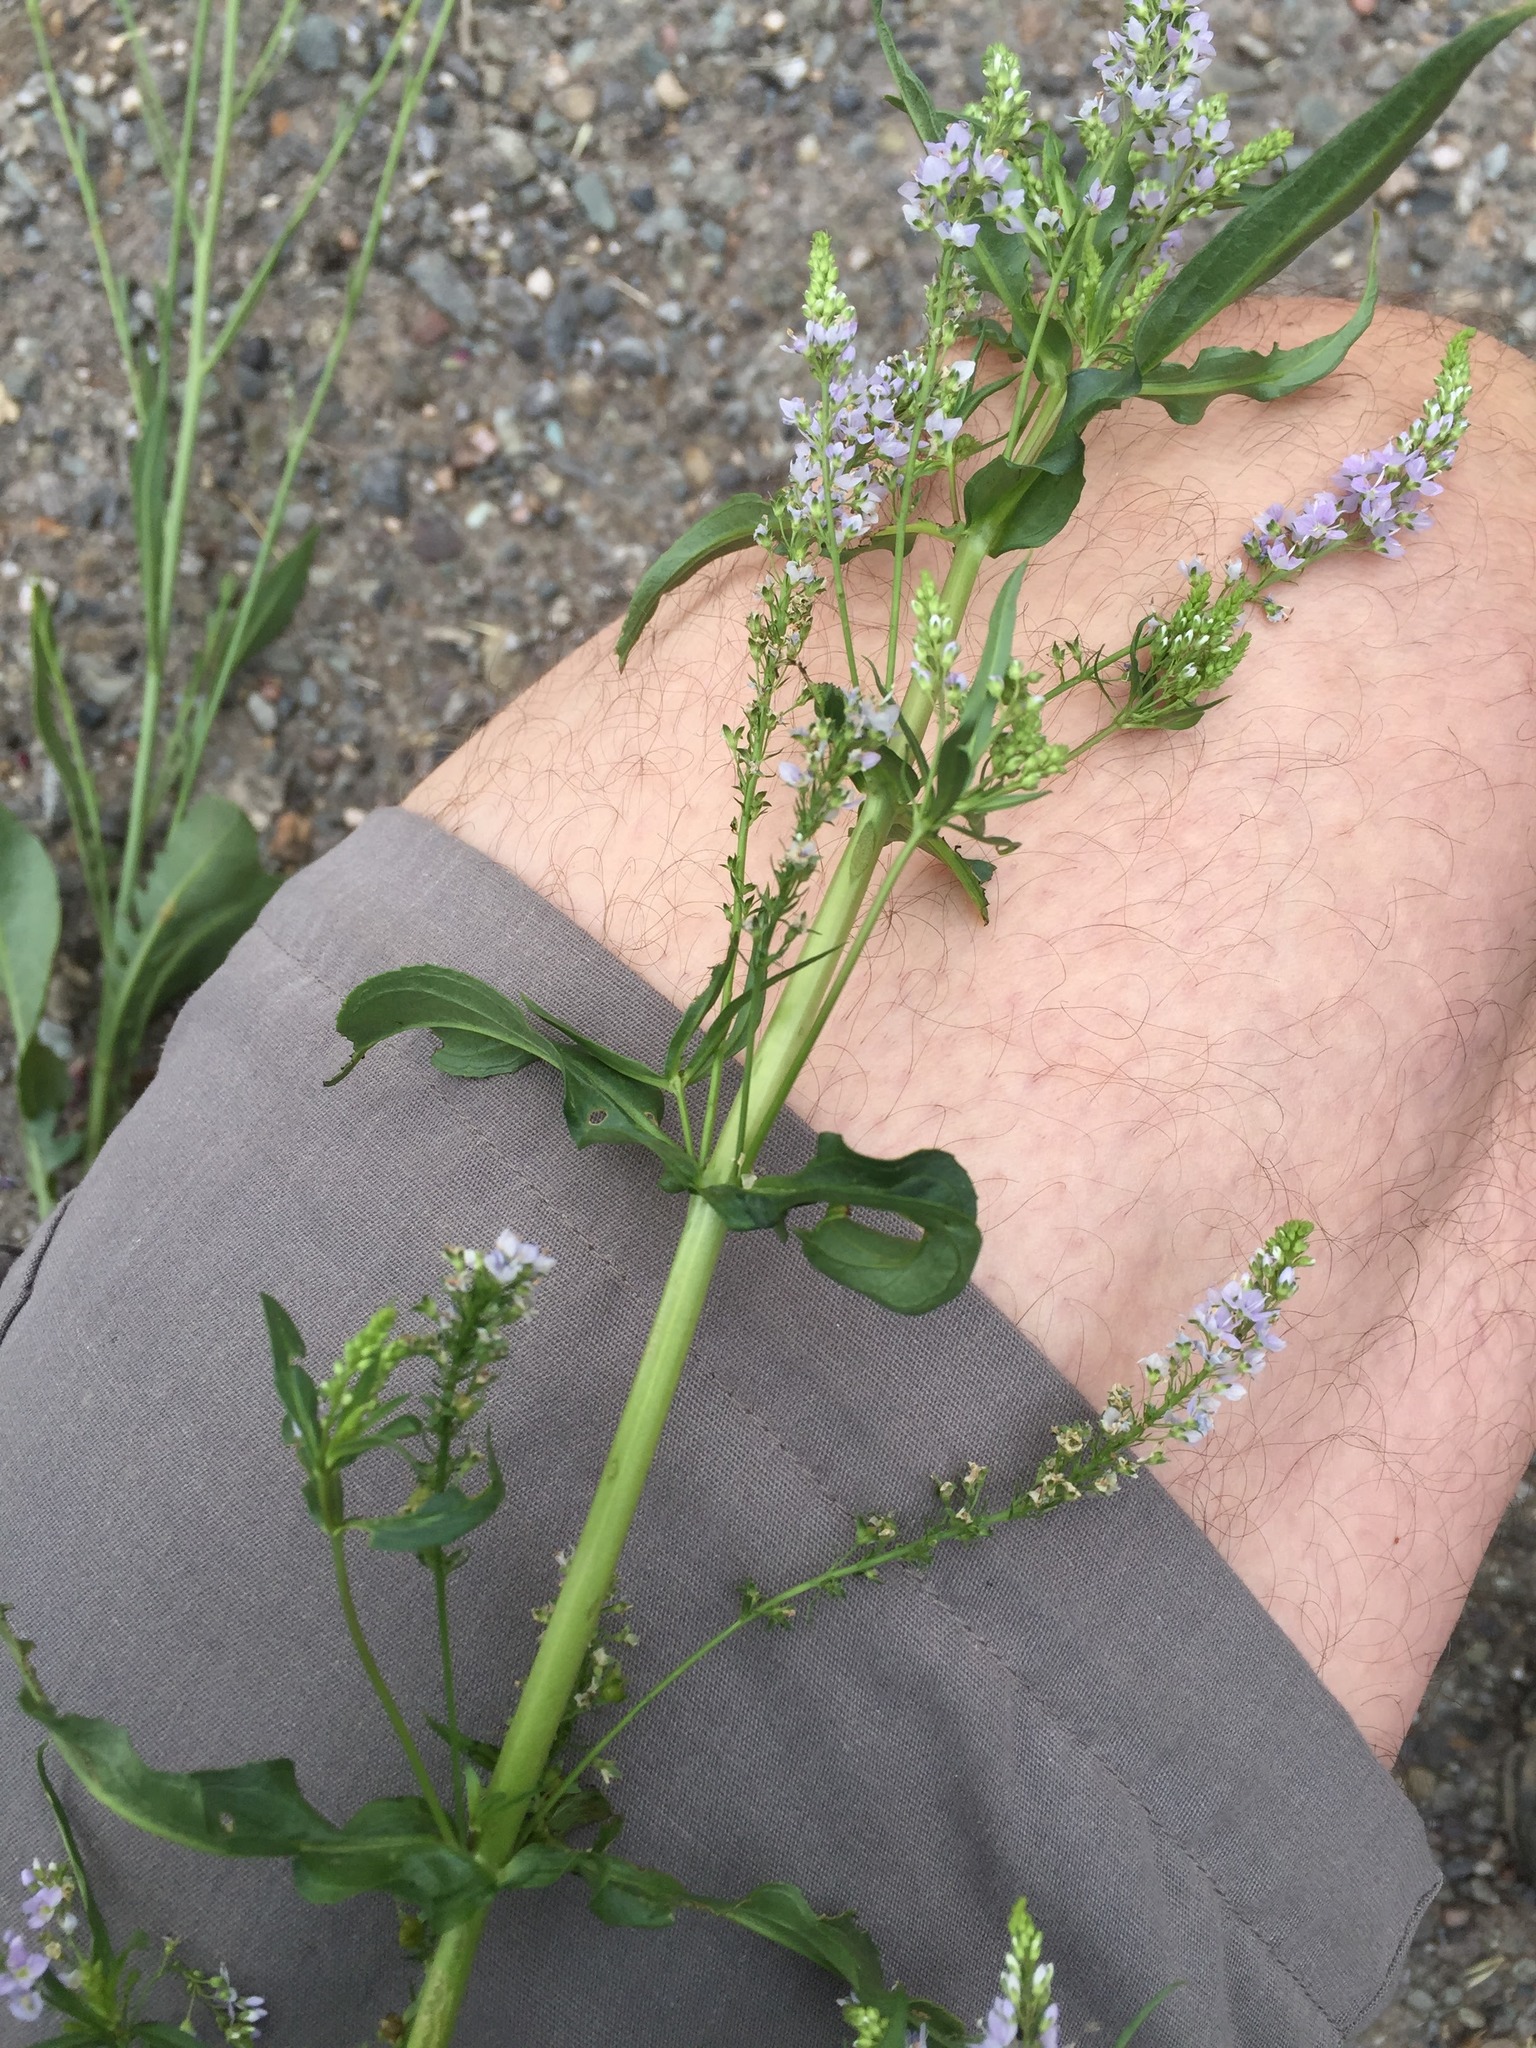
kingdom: Plantae
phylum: Tracheophyta
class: Magnoliopsida
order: Lamiales
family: Plantaginaceae
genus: Veronica
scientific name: Veronica anagallis-aquatica
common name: Water speedwell
